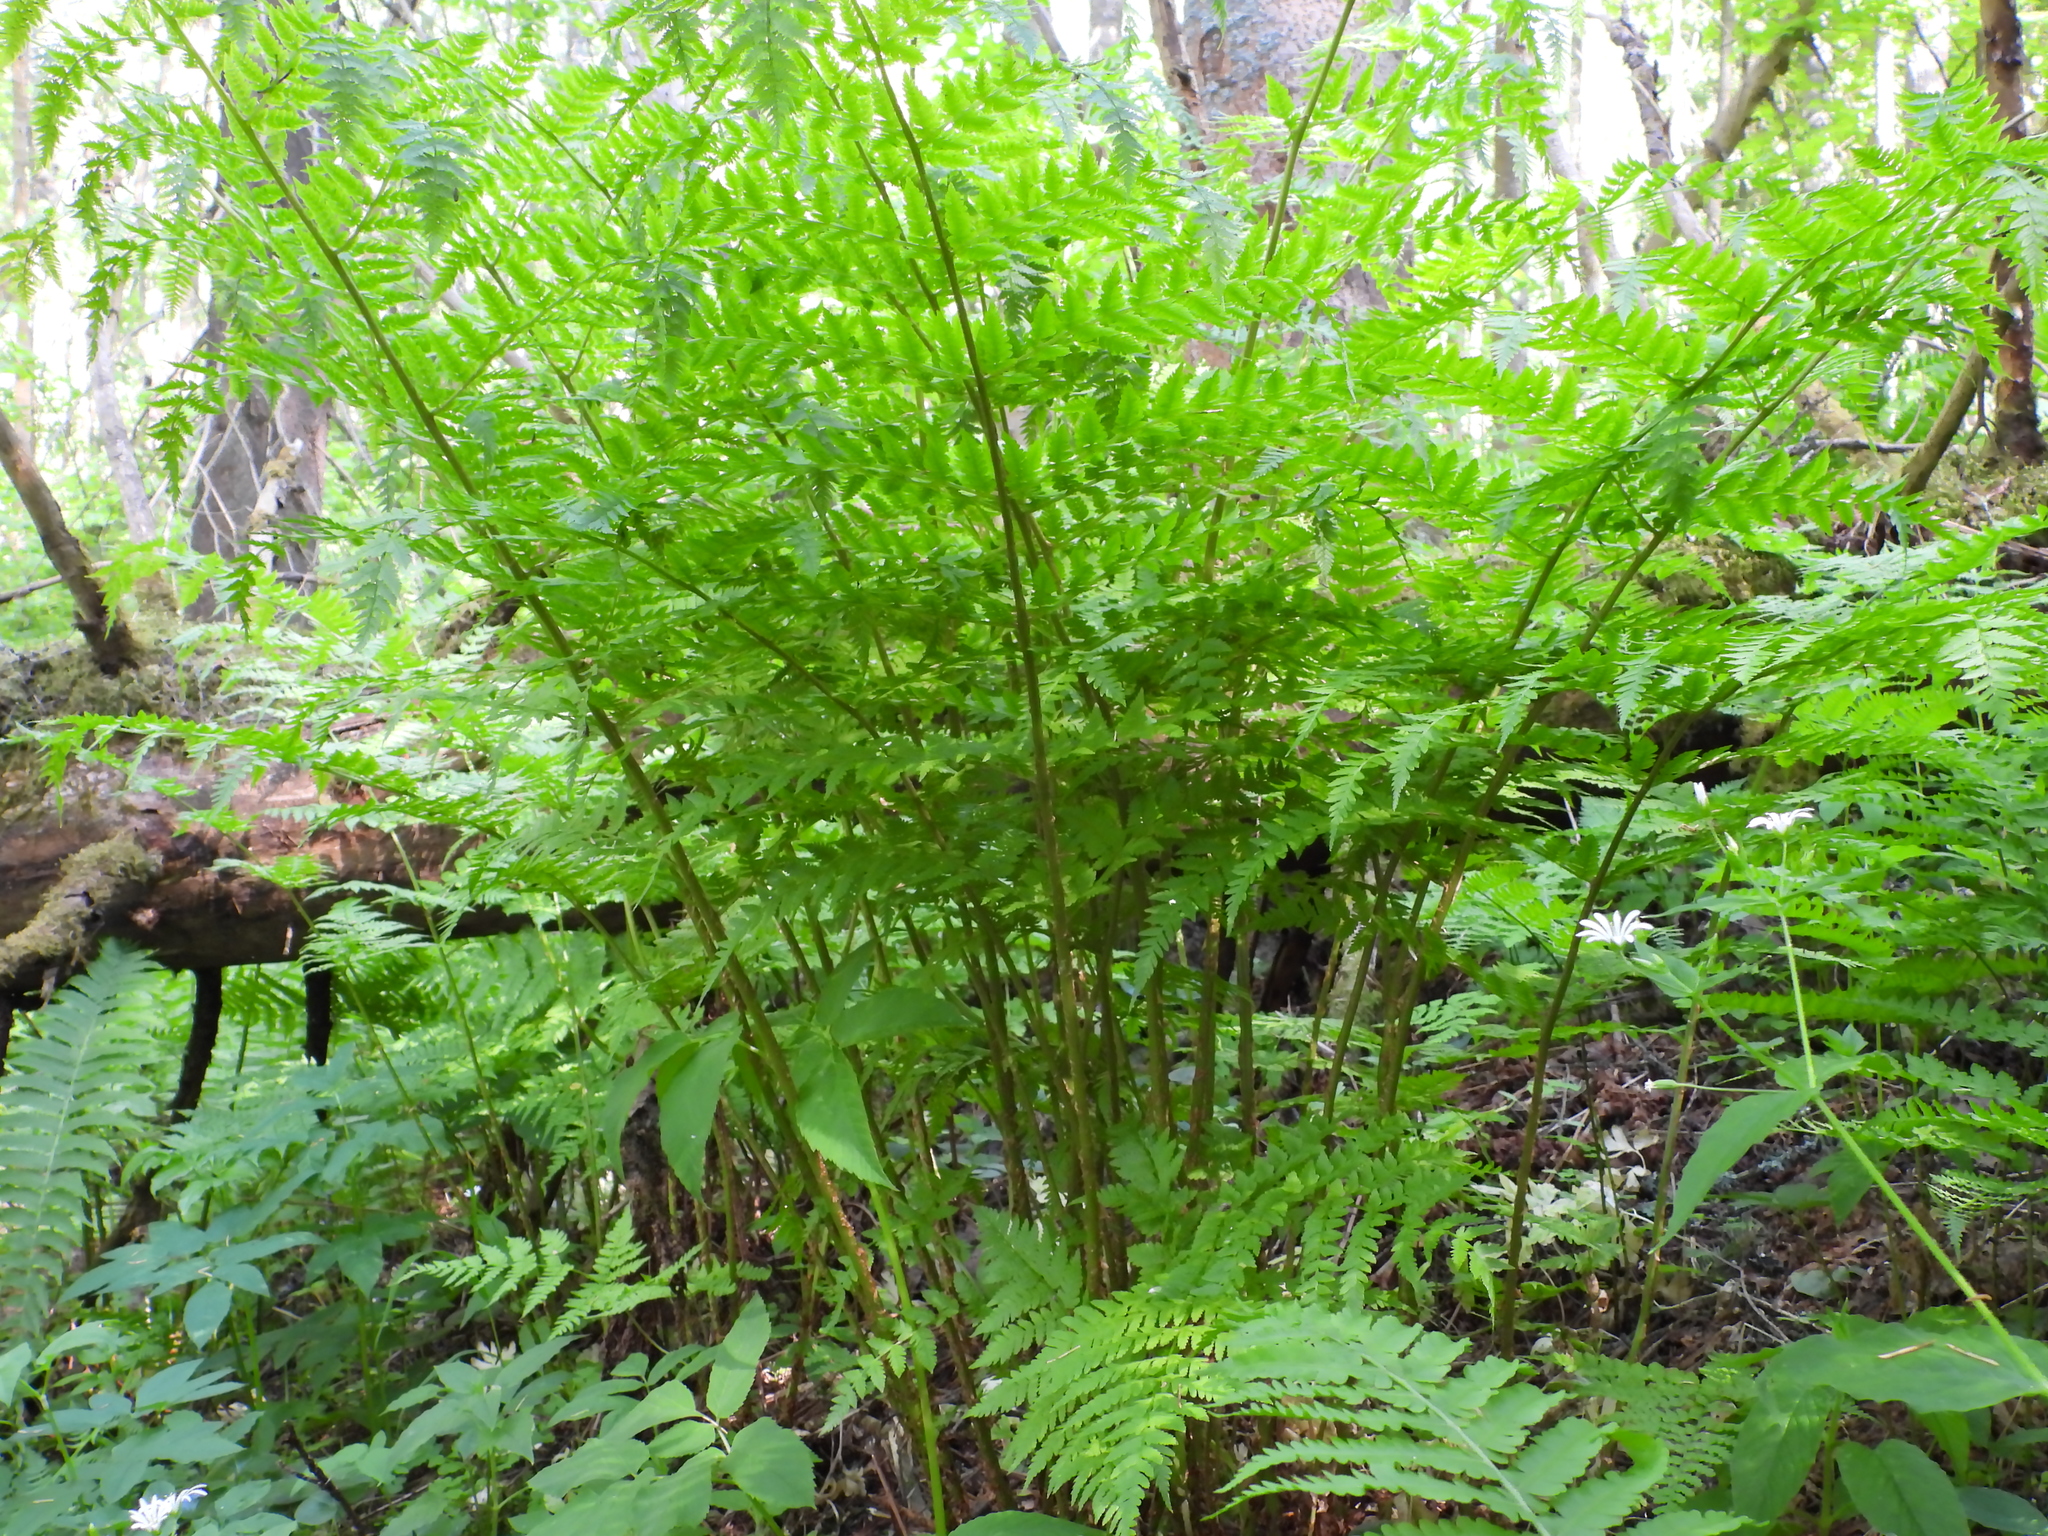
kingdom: Plantae
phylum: Tracheophyta
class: Polypodiopsida
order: Polypodiales
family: Dryopteridaceae
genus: Dryopteris
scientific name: Dryopteris expansa
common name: Northern buckler fern
